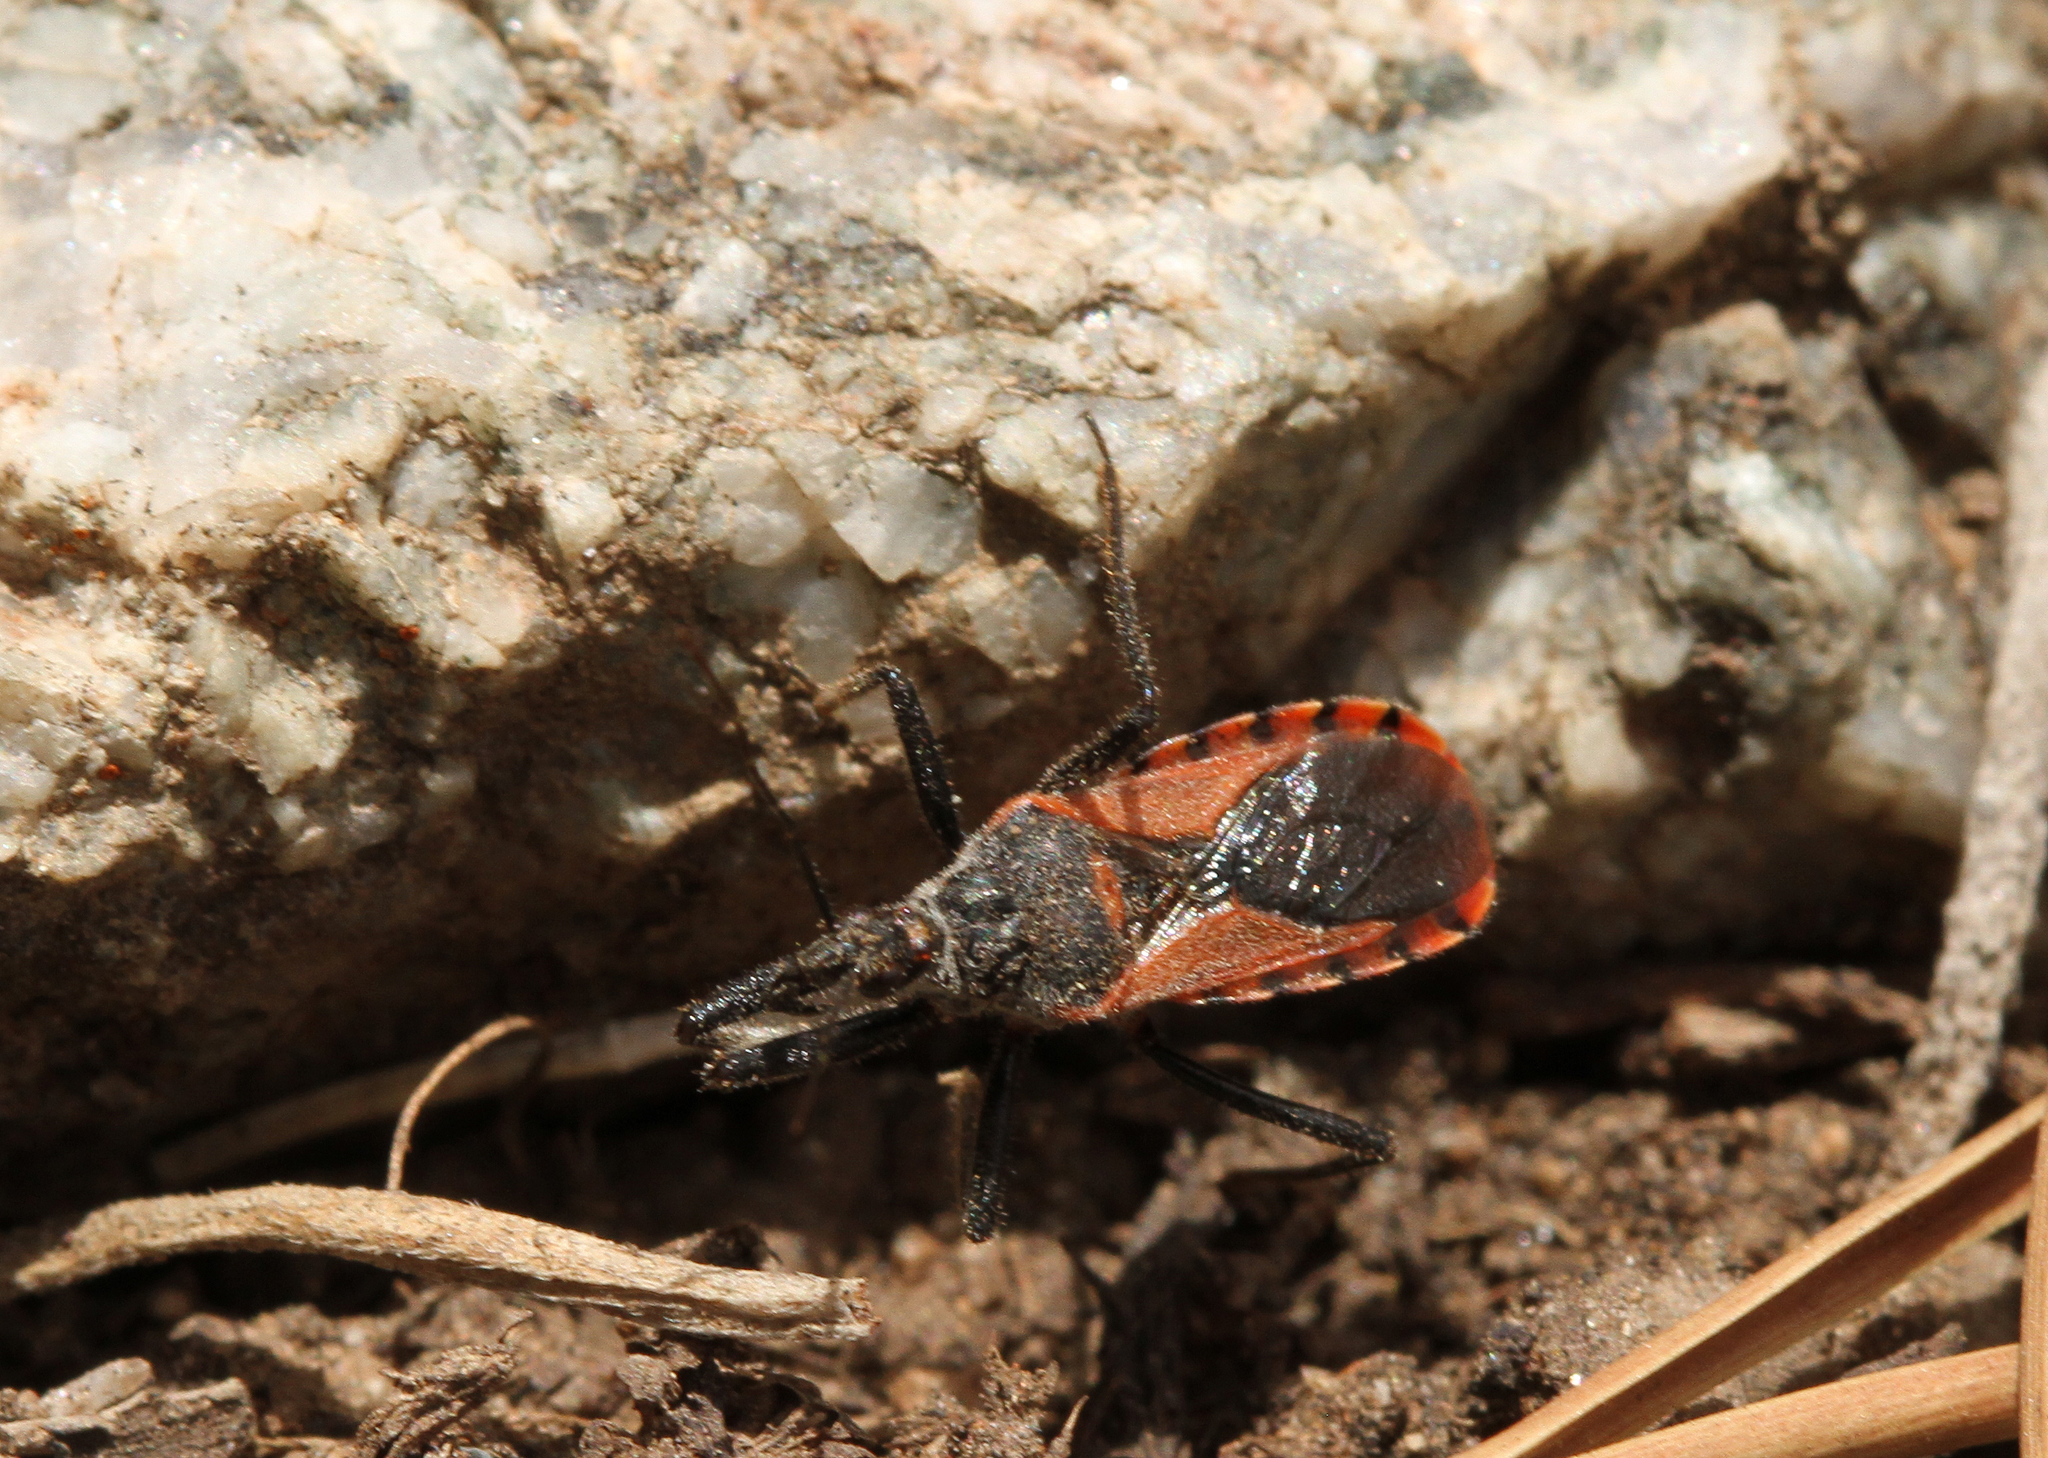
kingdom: Animalia
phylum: Arthropoda
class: Insecta
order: Hemiptera
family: Reduviidae
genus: Rhynocoris
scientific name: Rhynocoris ventralis
